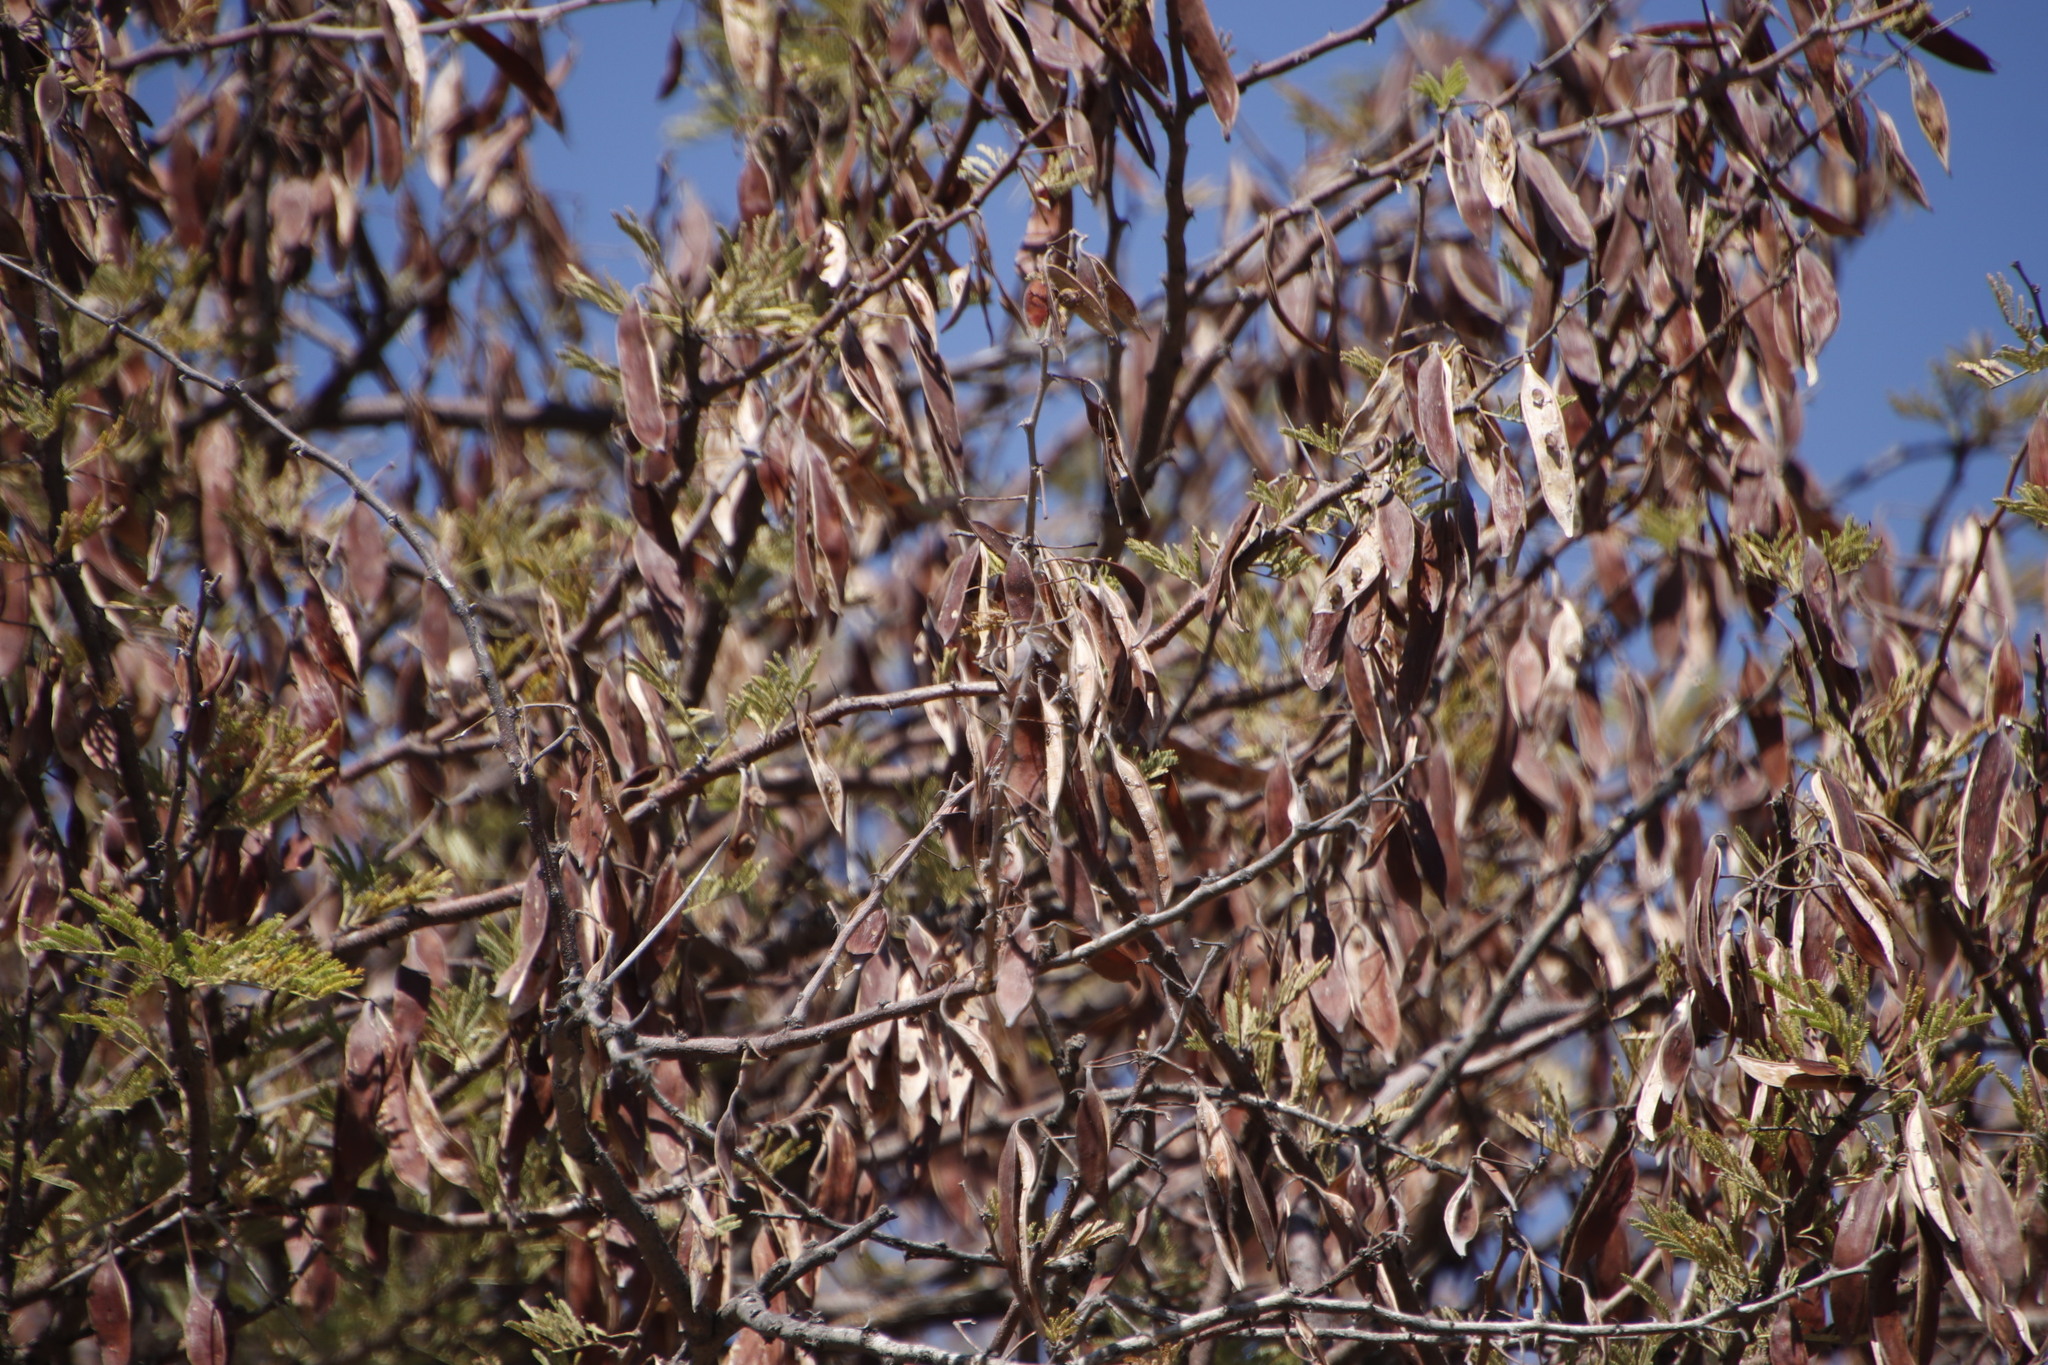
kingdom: Plantae
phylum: Tracheophyta
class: Magnoliopsida
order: Fabales
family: Fabaceae
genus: Vachellia
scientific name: Vachellia luederitzii
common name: Bastard umbrella thorn
